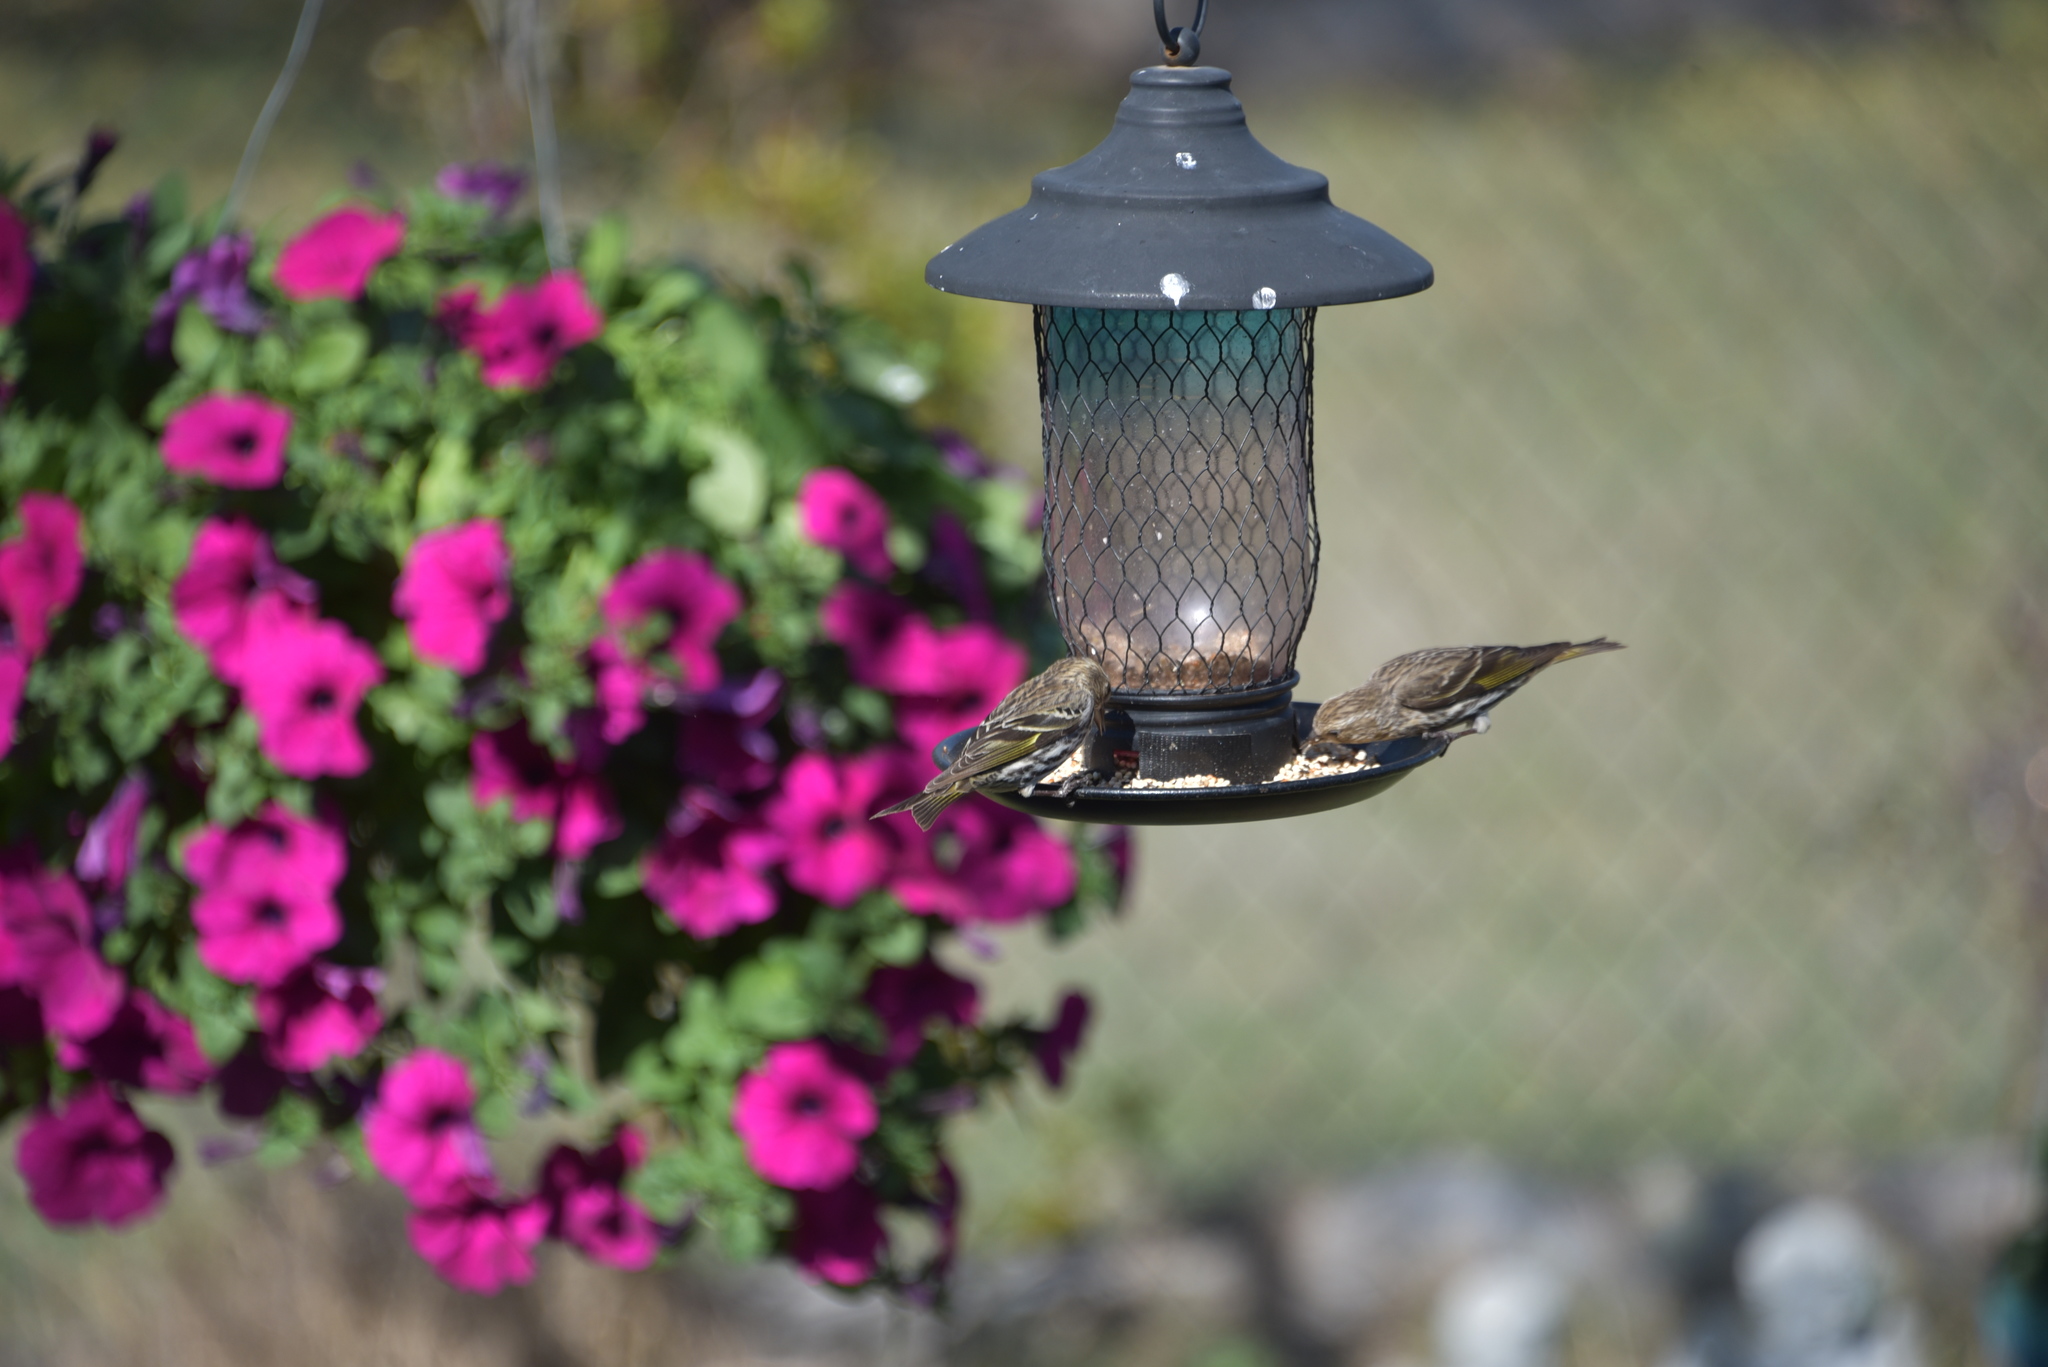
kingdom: Animalia
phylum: Chordata
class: Aves
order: Passeriformes
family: Fringillidae
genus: Spinus
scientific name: Spinus pinus
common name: Pine siskin
